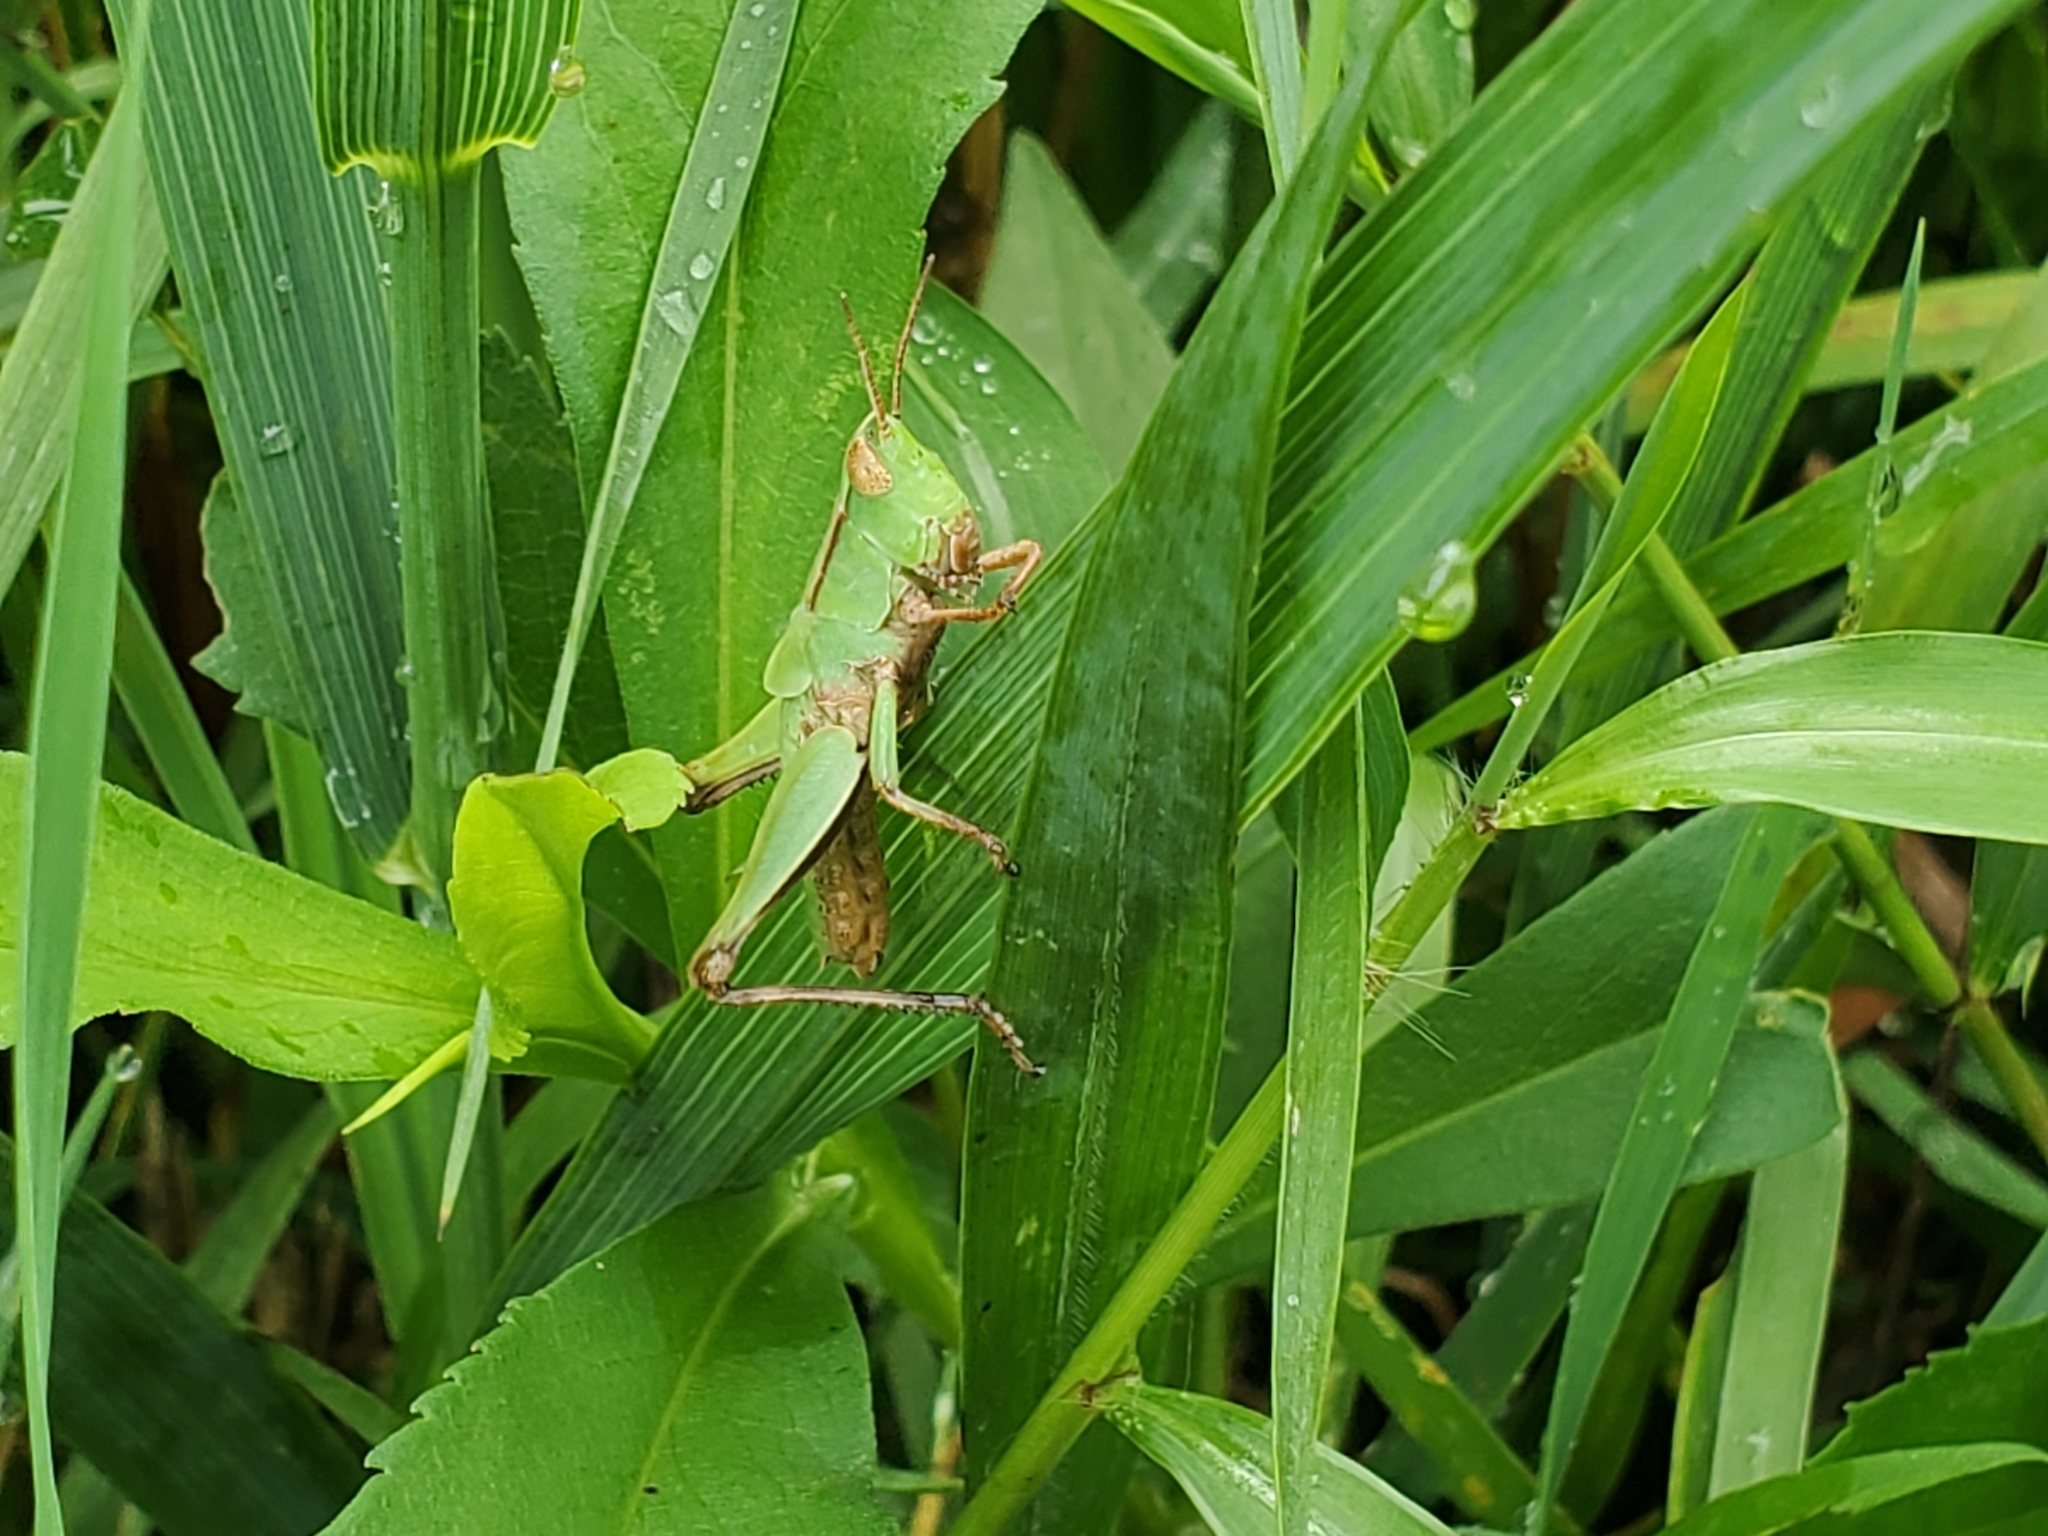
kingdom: Animalia
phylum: Arthropoda
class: Insecta
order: Orthoptera
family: Acrididae
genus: Dichromorpha
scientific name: Dichromorpha viridis
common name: Short-winged green grasshopper
